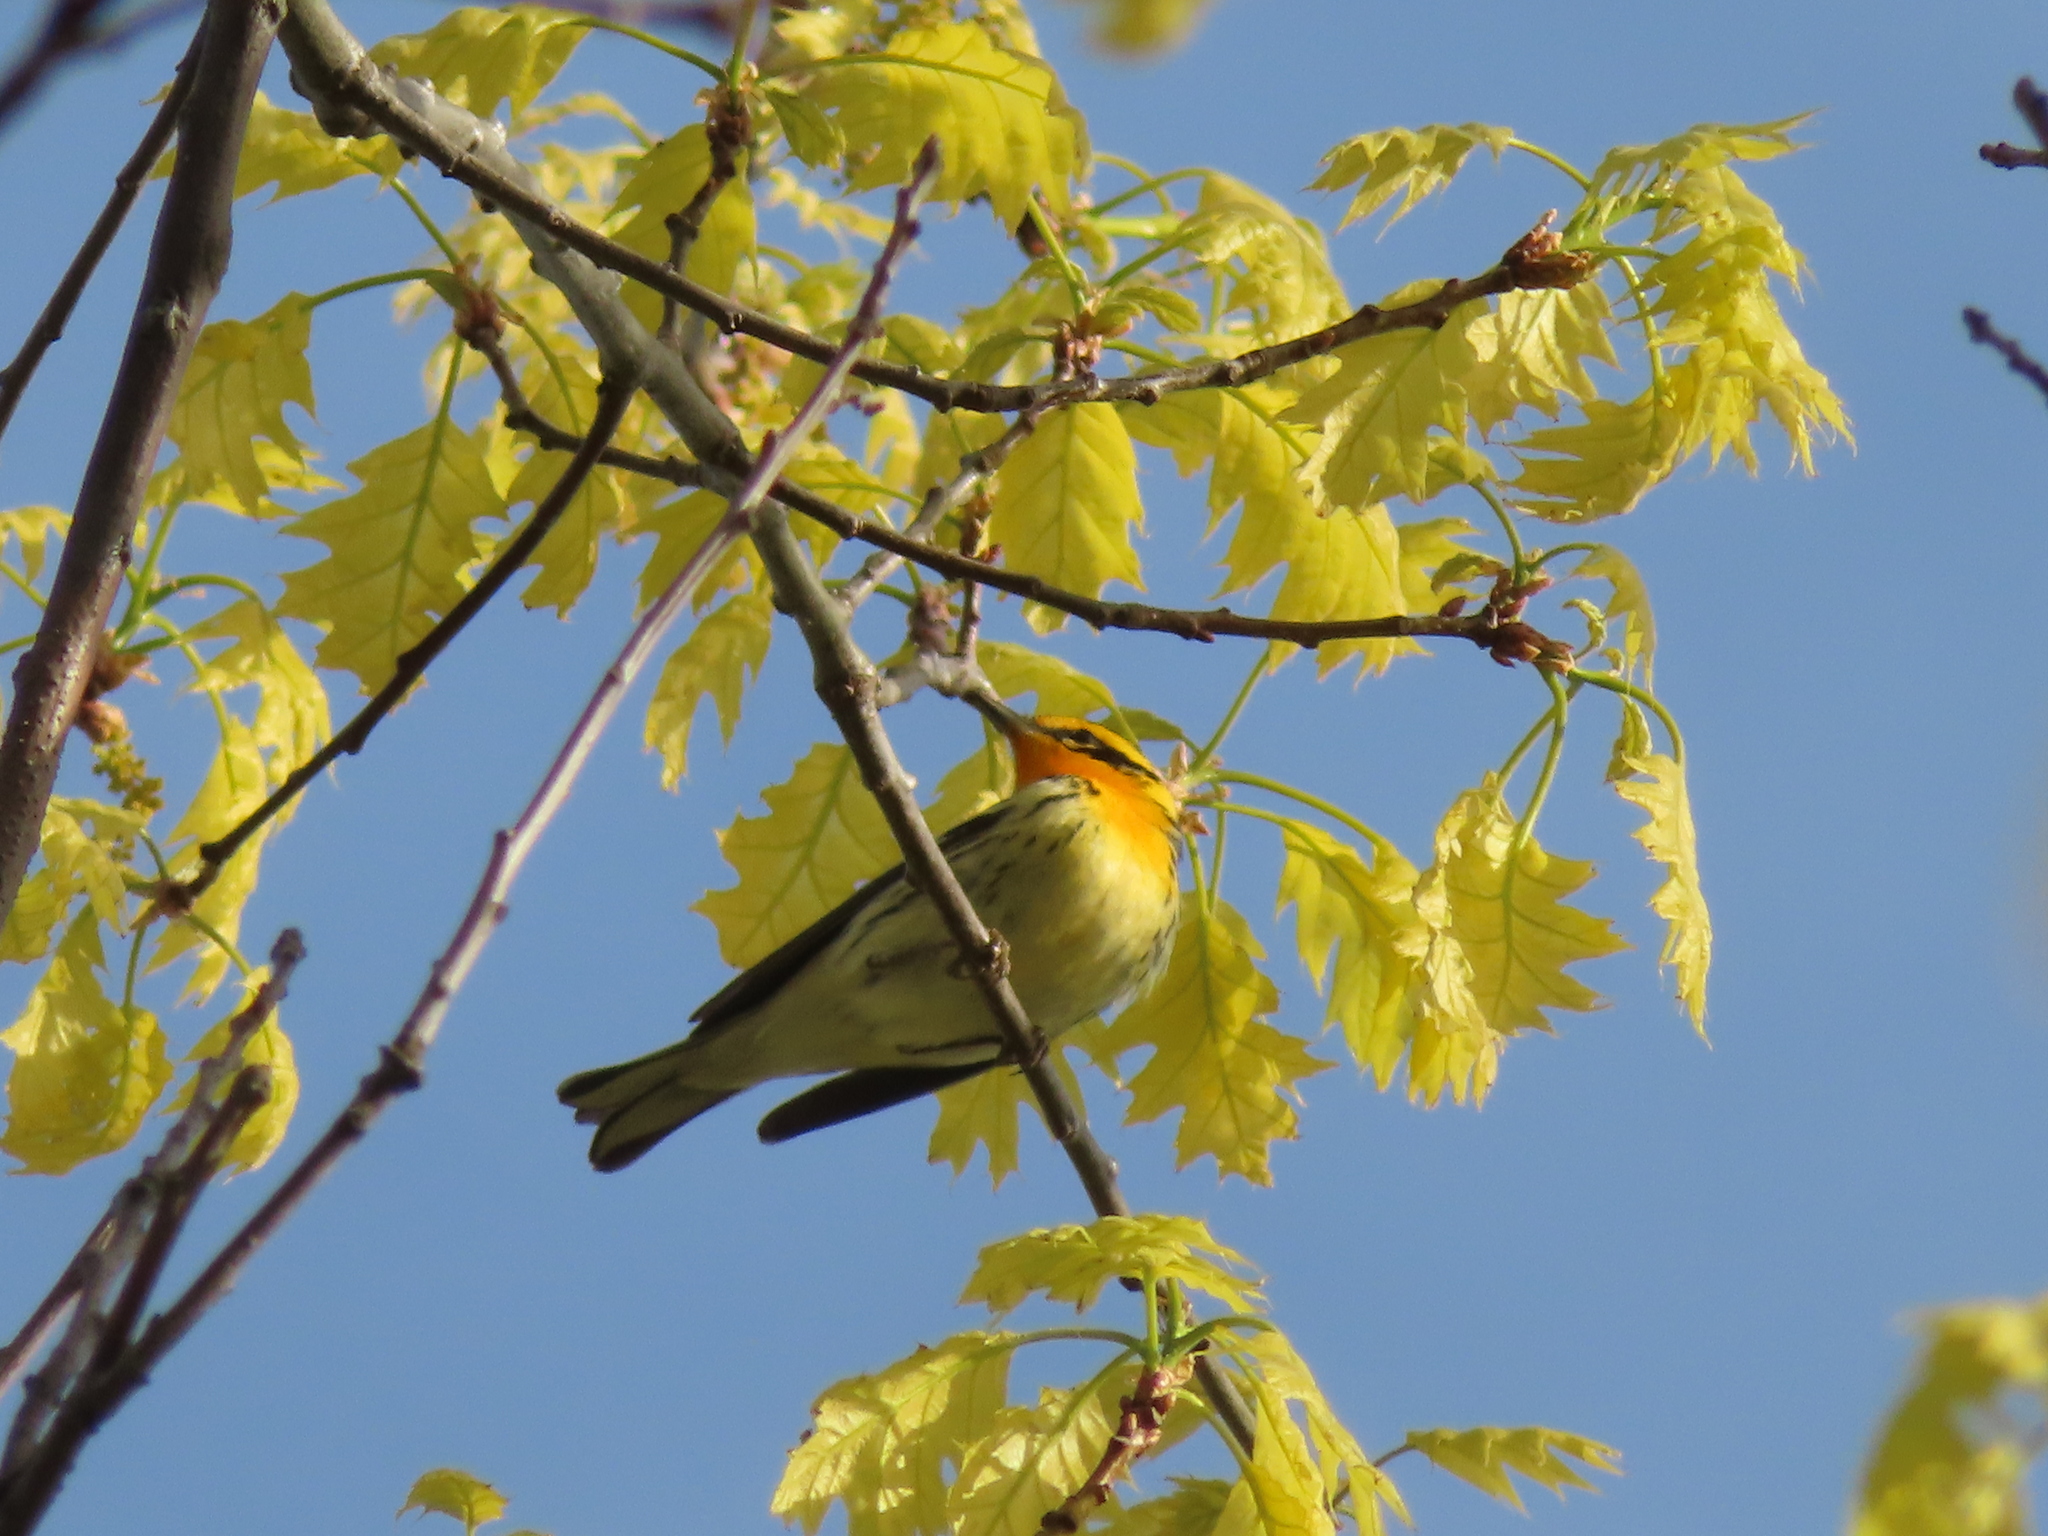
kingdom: Animalia
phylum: Chordata
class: Aves
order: Passeriformes
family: Parulidae
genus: Setophaga
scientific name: Setophaga fusca
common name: Blackburnian warbler
